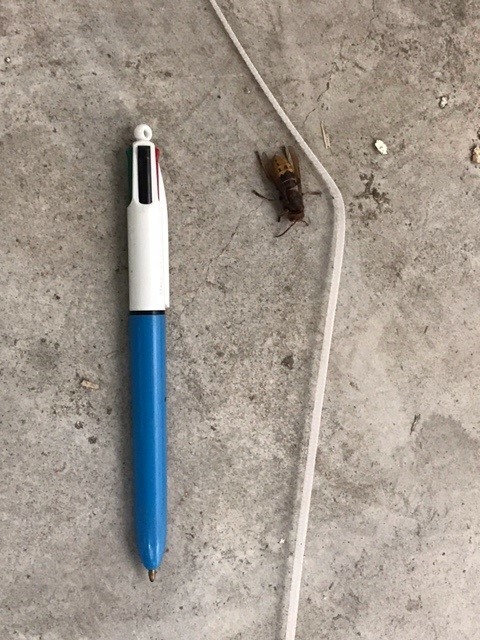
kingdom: Animalia
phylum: Arthropoda
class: Insecta
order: Hymenoptera
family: Vespidae
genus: Vespa
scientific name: Vespa crabro
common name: Hornet
